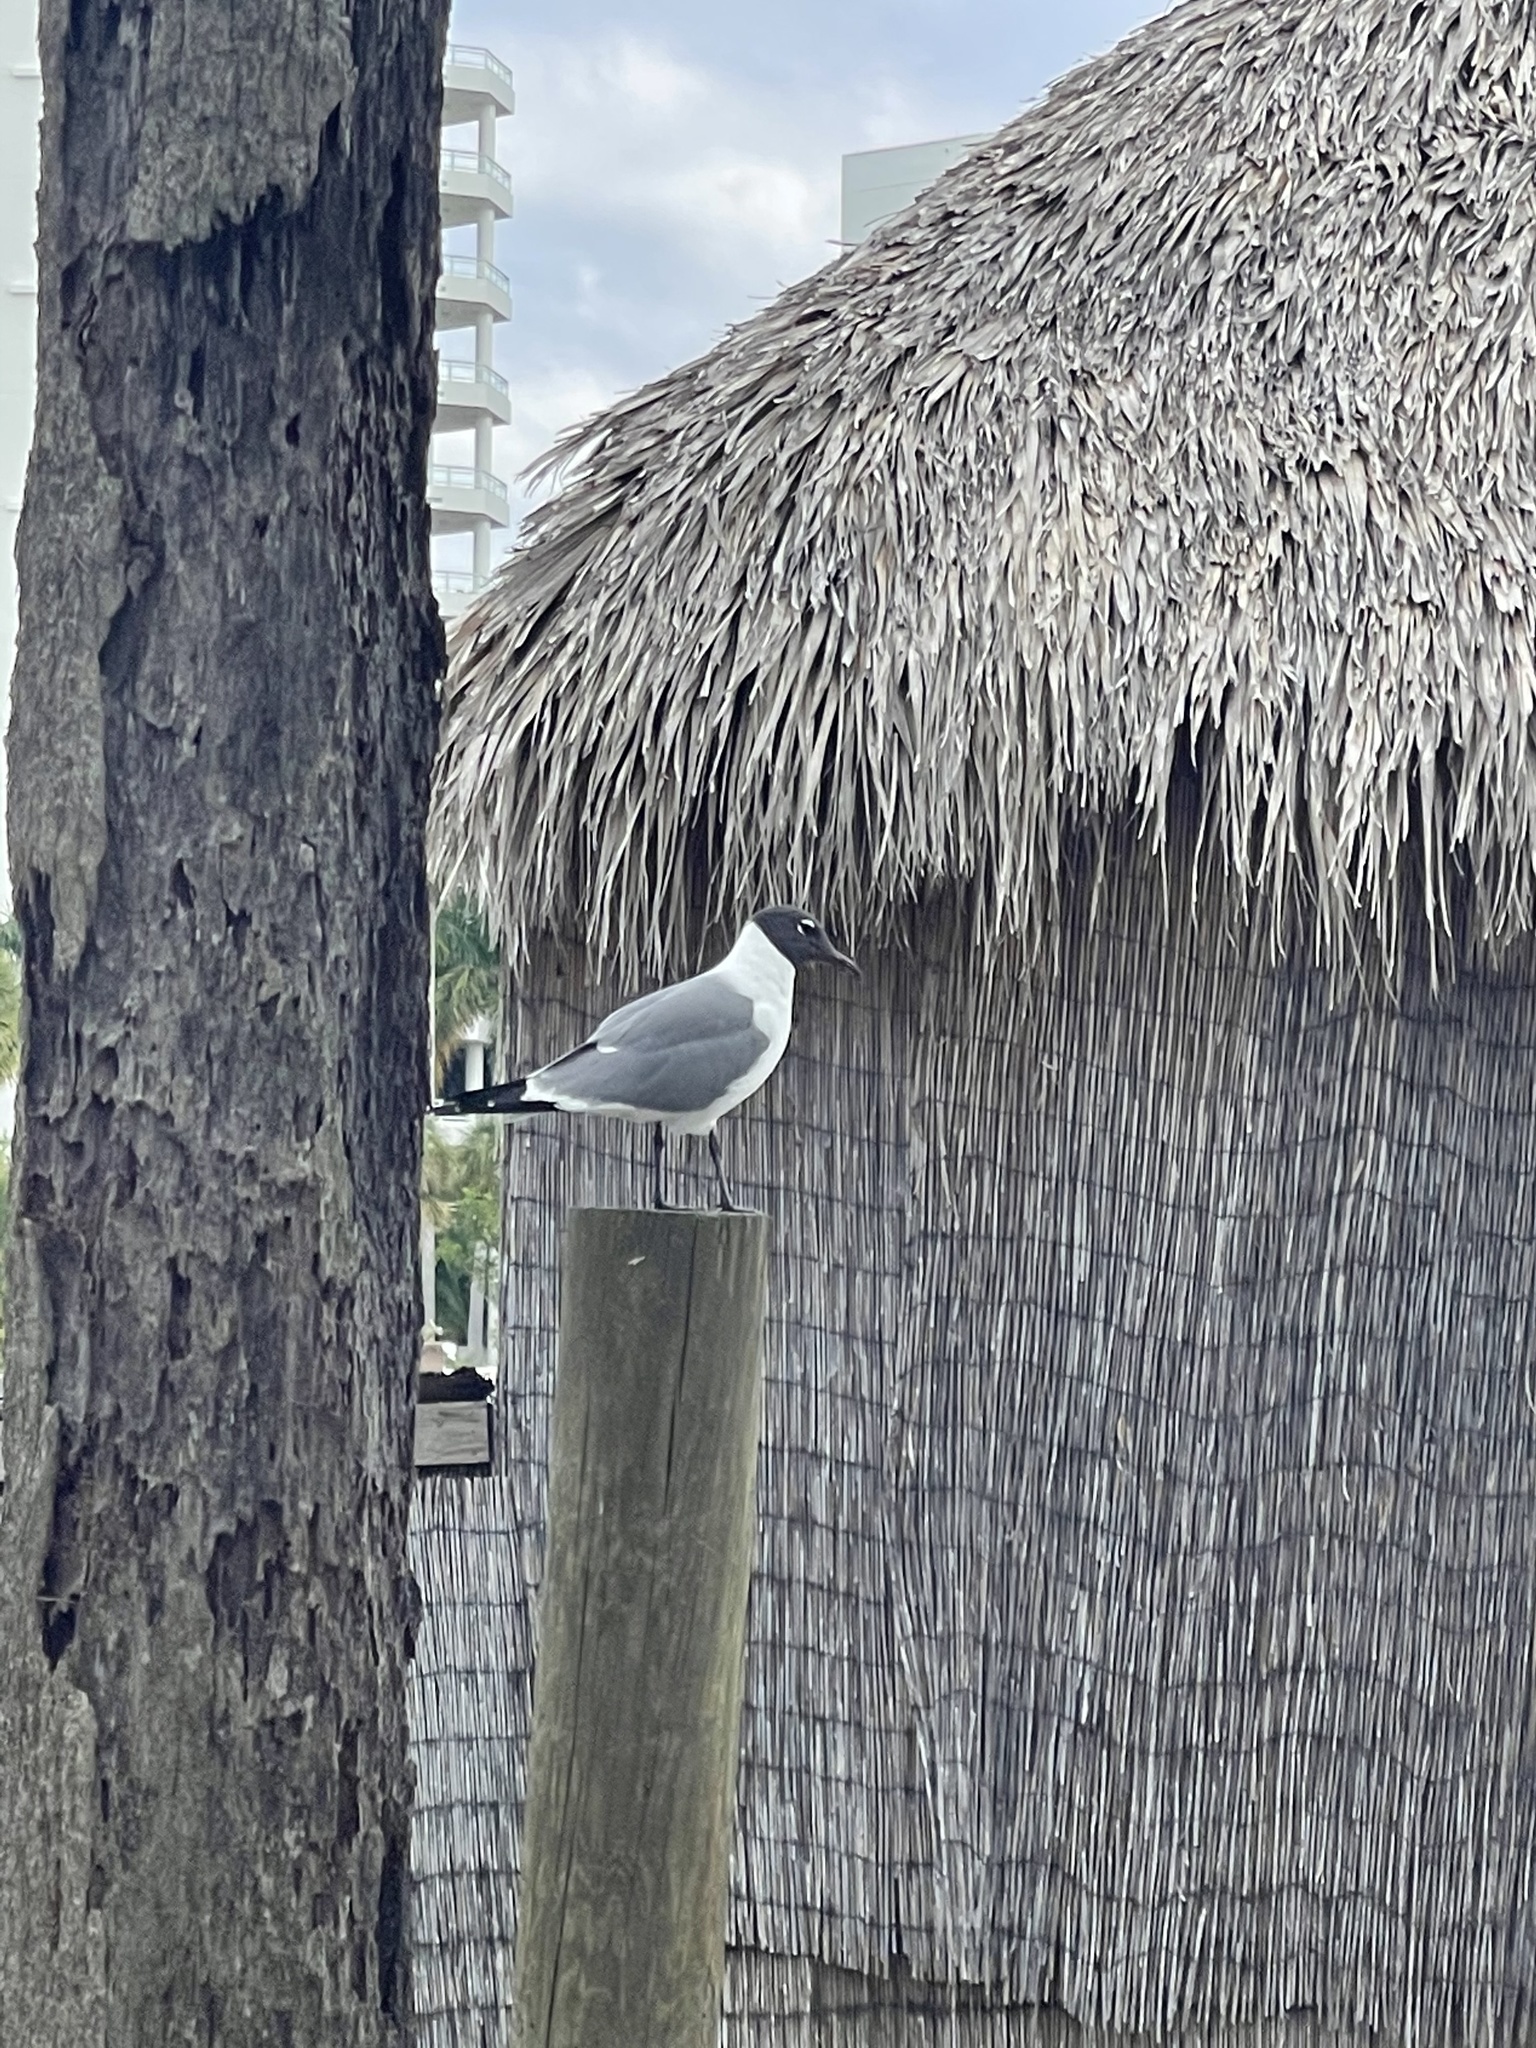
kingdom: Animalia
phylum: Chordata
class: Aves
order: Charadriiformes
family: Laridae
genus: Leucophaeus
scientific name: Leucophaeus atricilla
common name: Laughing gull
